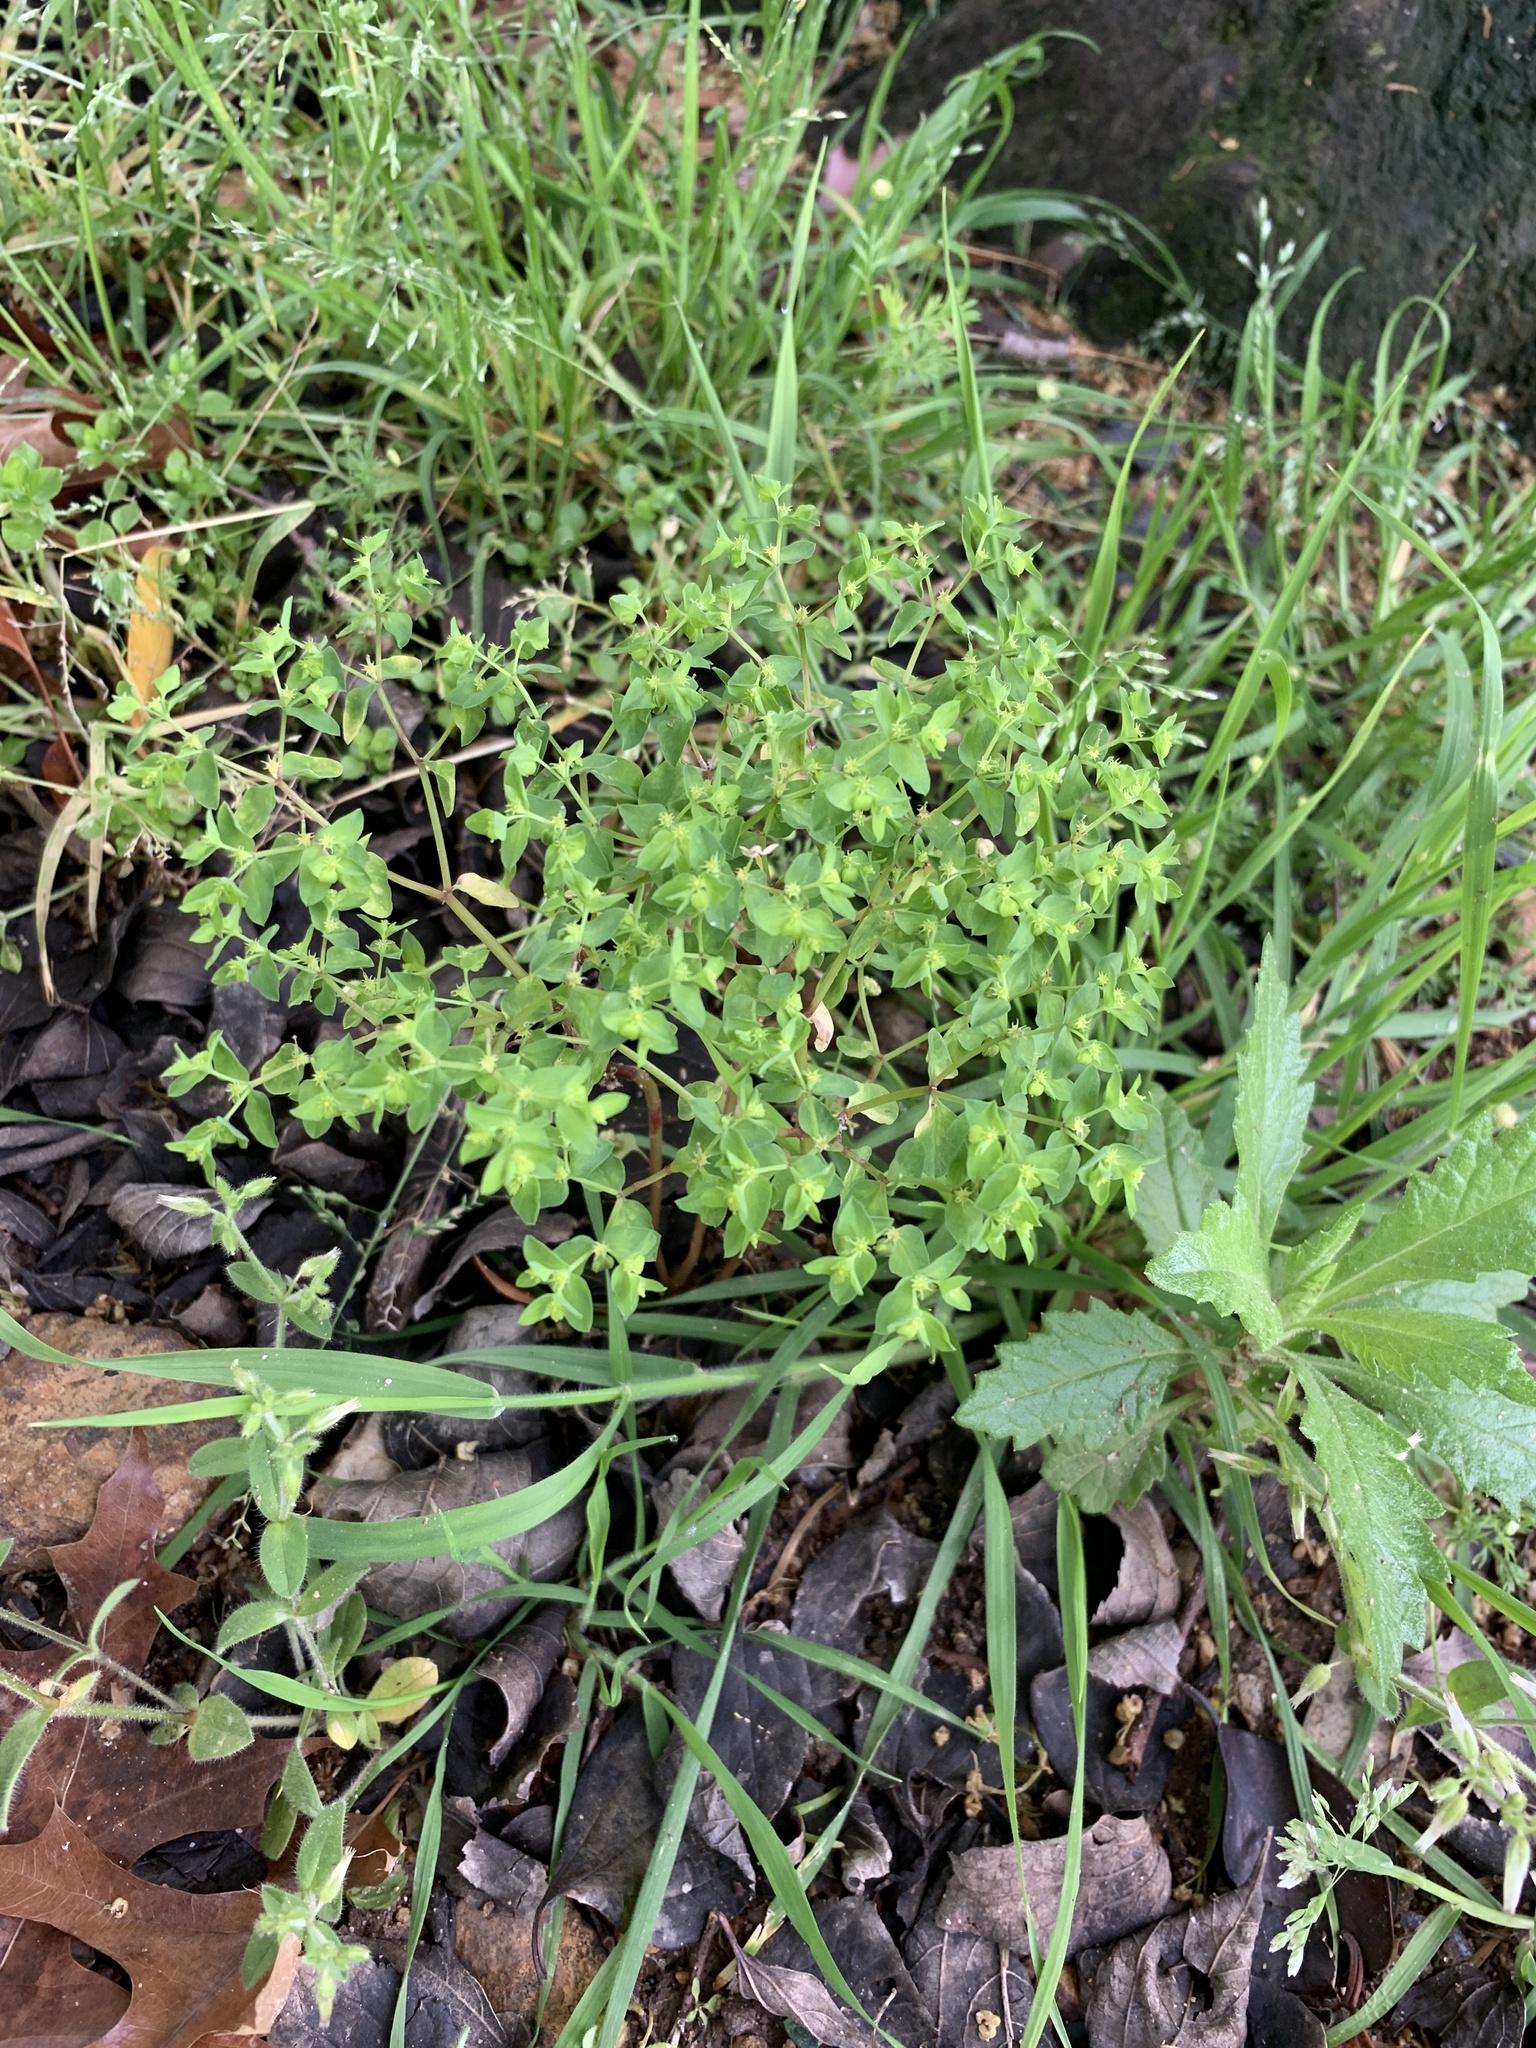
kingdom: Plantae
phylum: Tracheophyta
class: Magnoliopsida
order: Malpighiales
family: Euphorbiaceae
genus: Euphorbia
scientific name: Euphorbia peplus
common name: Petty spurge
